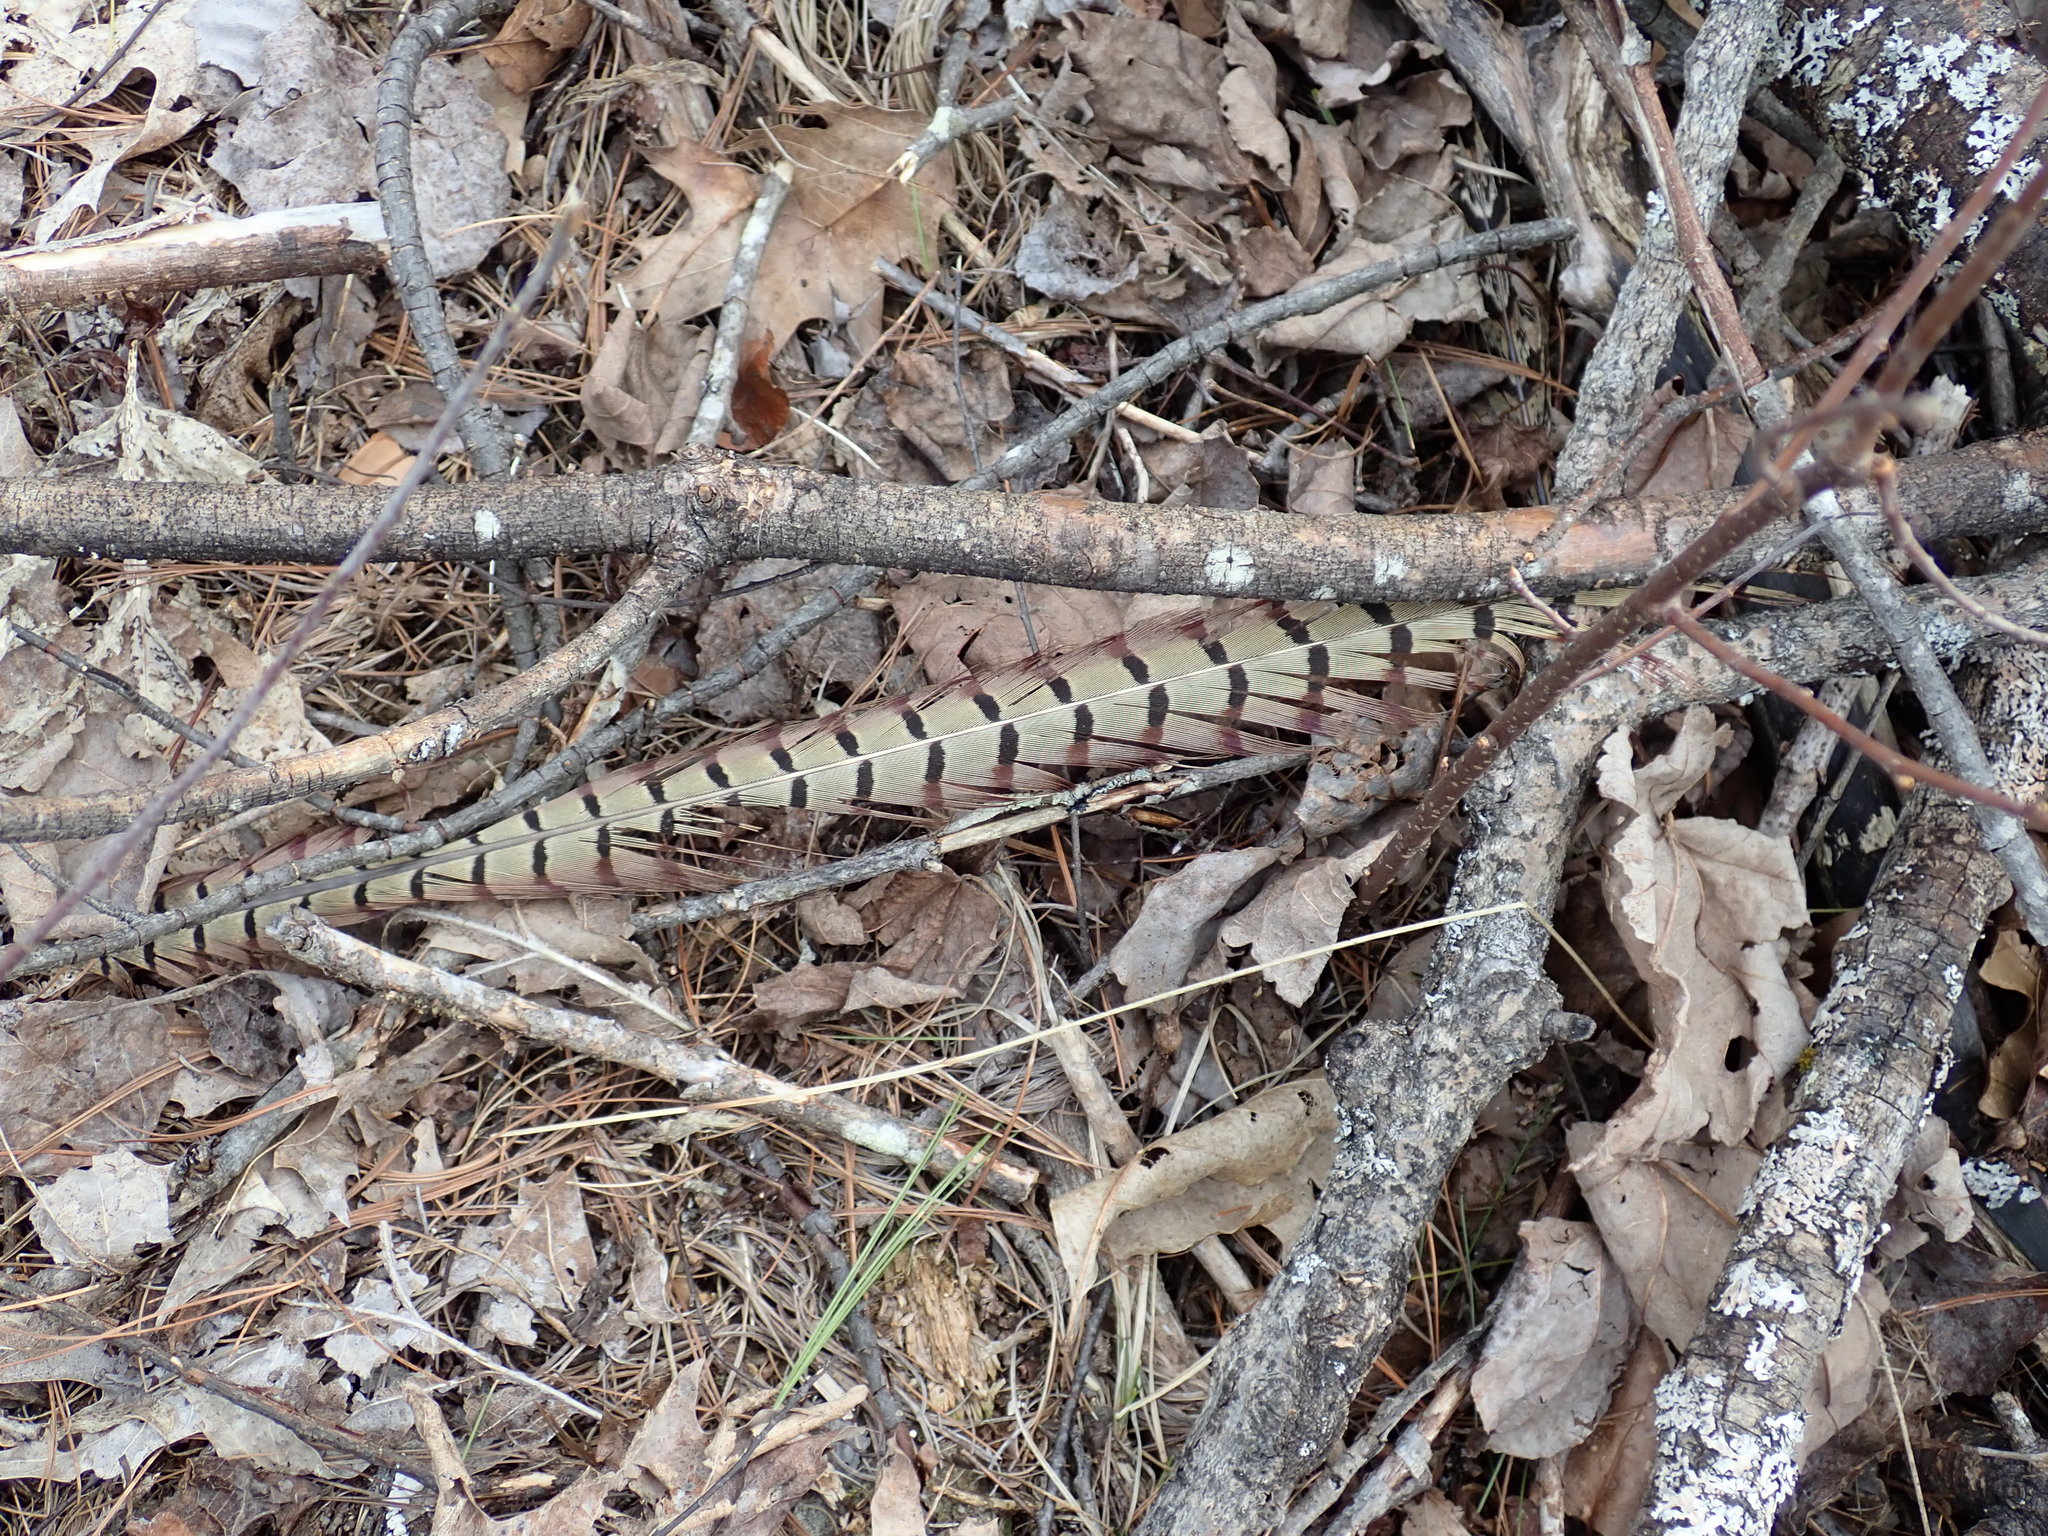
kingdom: Animalia
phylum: Chordata
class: Aves
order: Galliformes
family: Phasianidae
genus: Phasianus
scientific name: Phasianus colchicus
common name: Common pheasant
